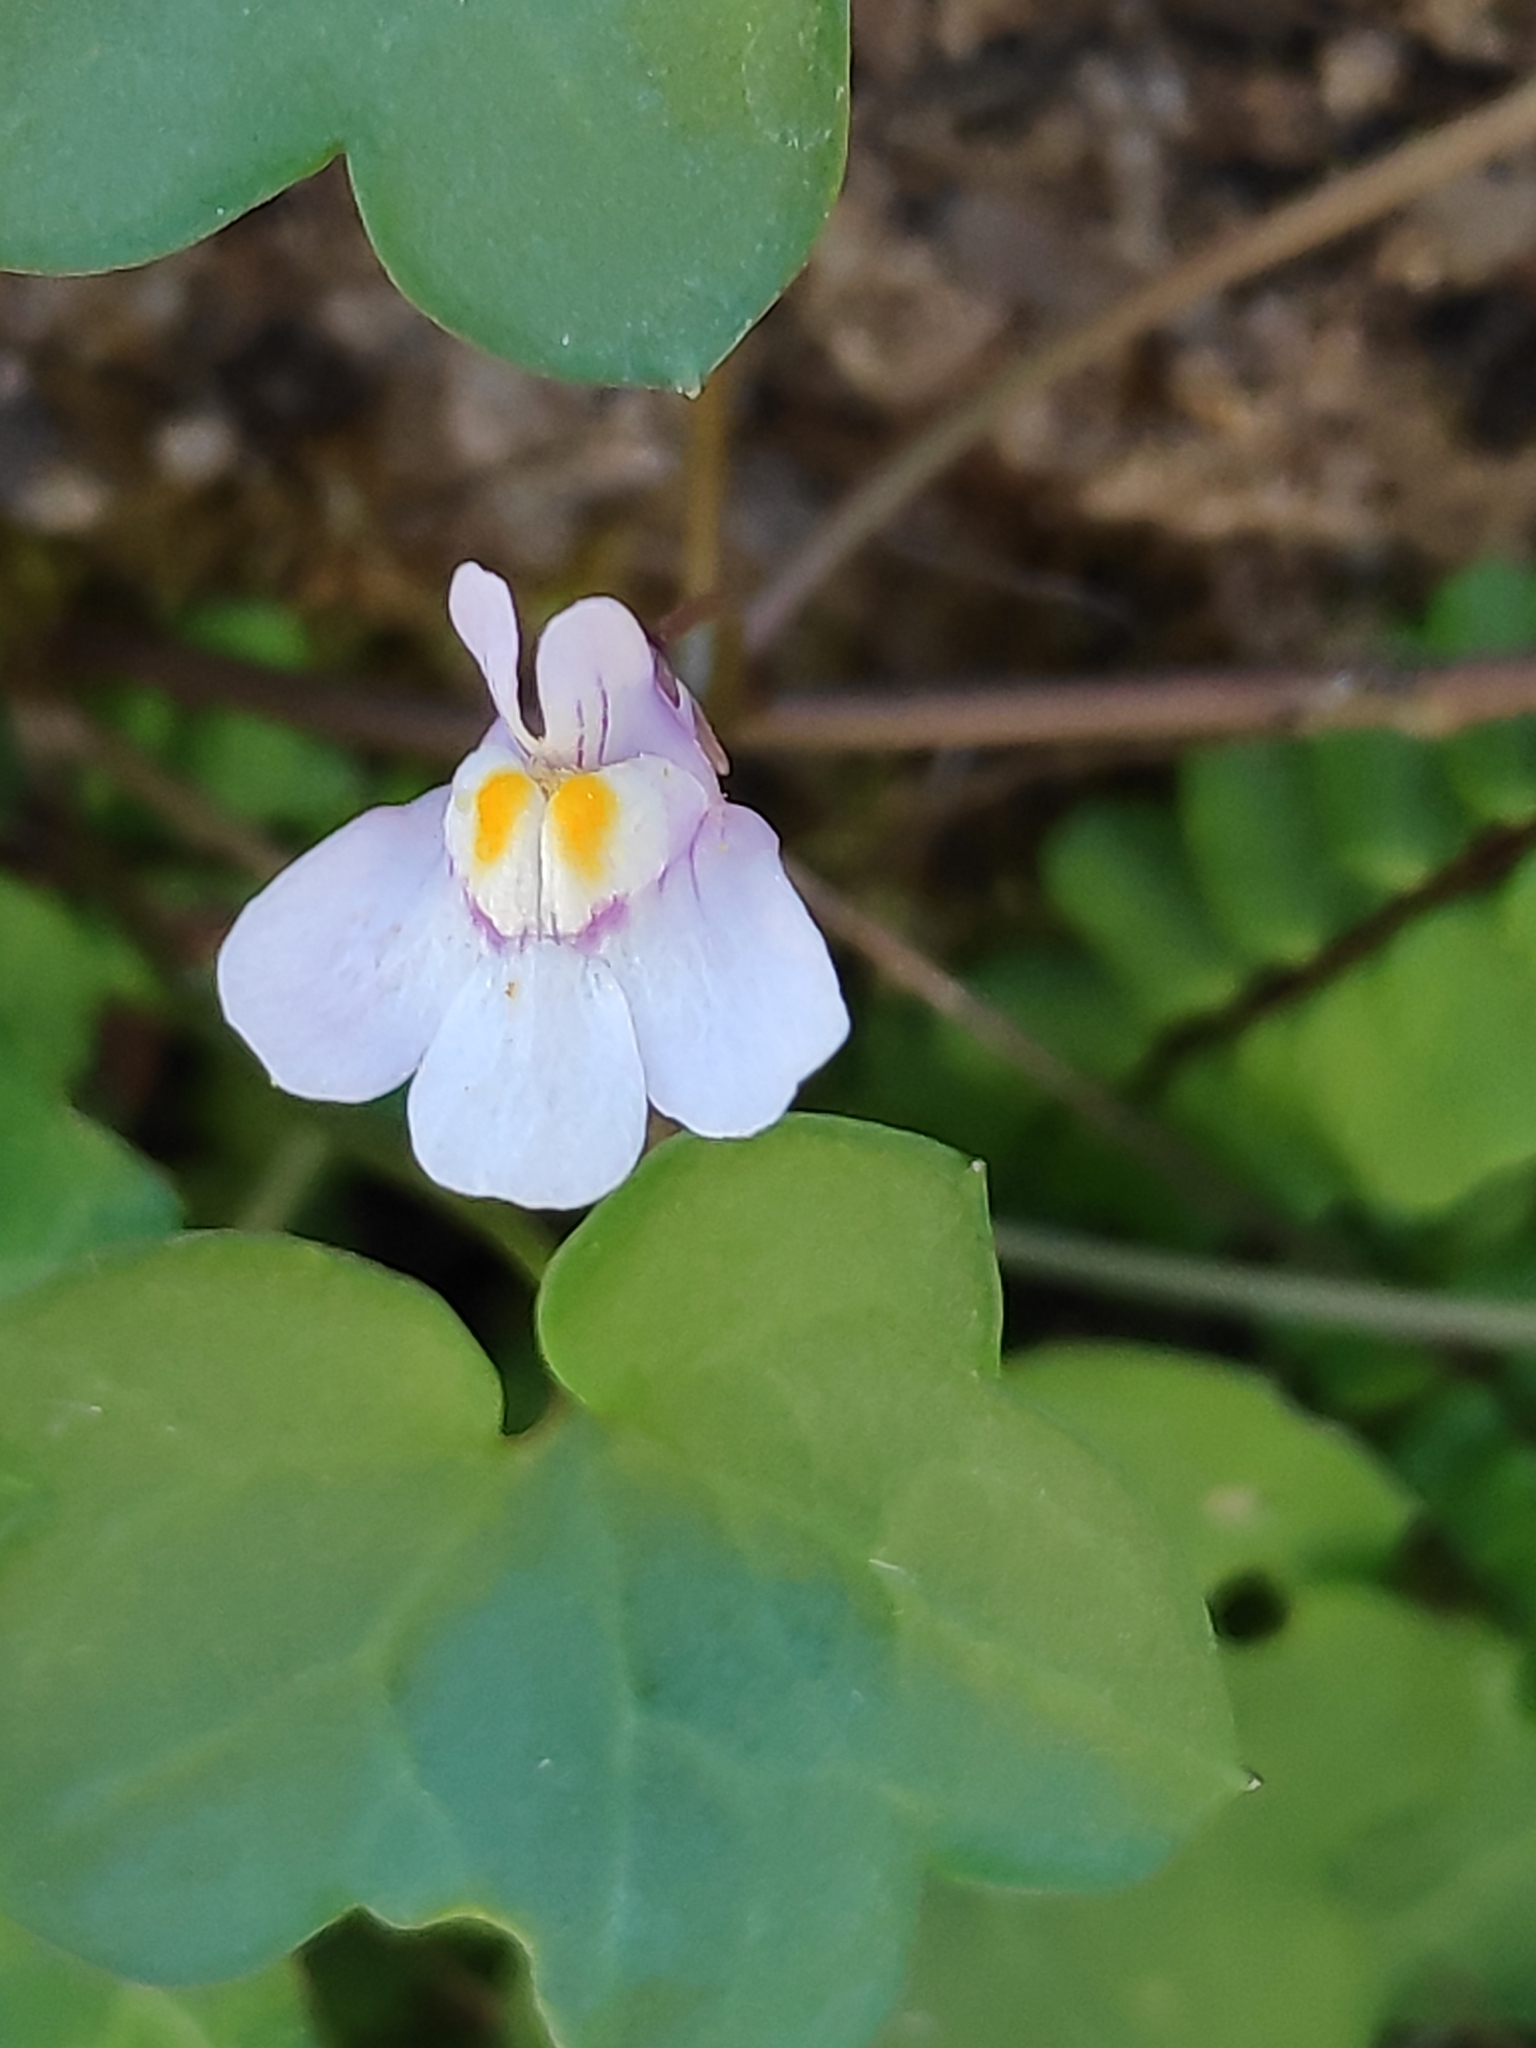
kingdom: Plantae
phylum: Tracheophyta
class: Magnoliopsida
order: Lamiales
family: Plantaginaceae
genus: Cymbalaria
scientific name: Cymbalaria muralis
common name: Ivy-leaved toadflax
